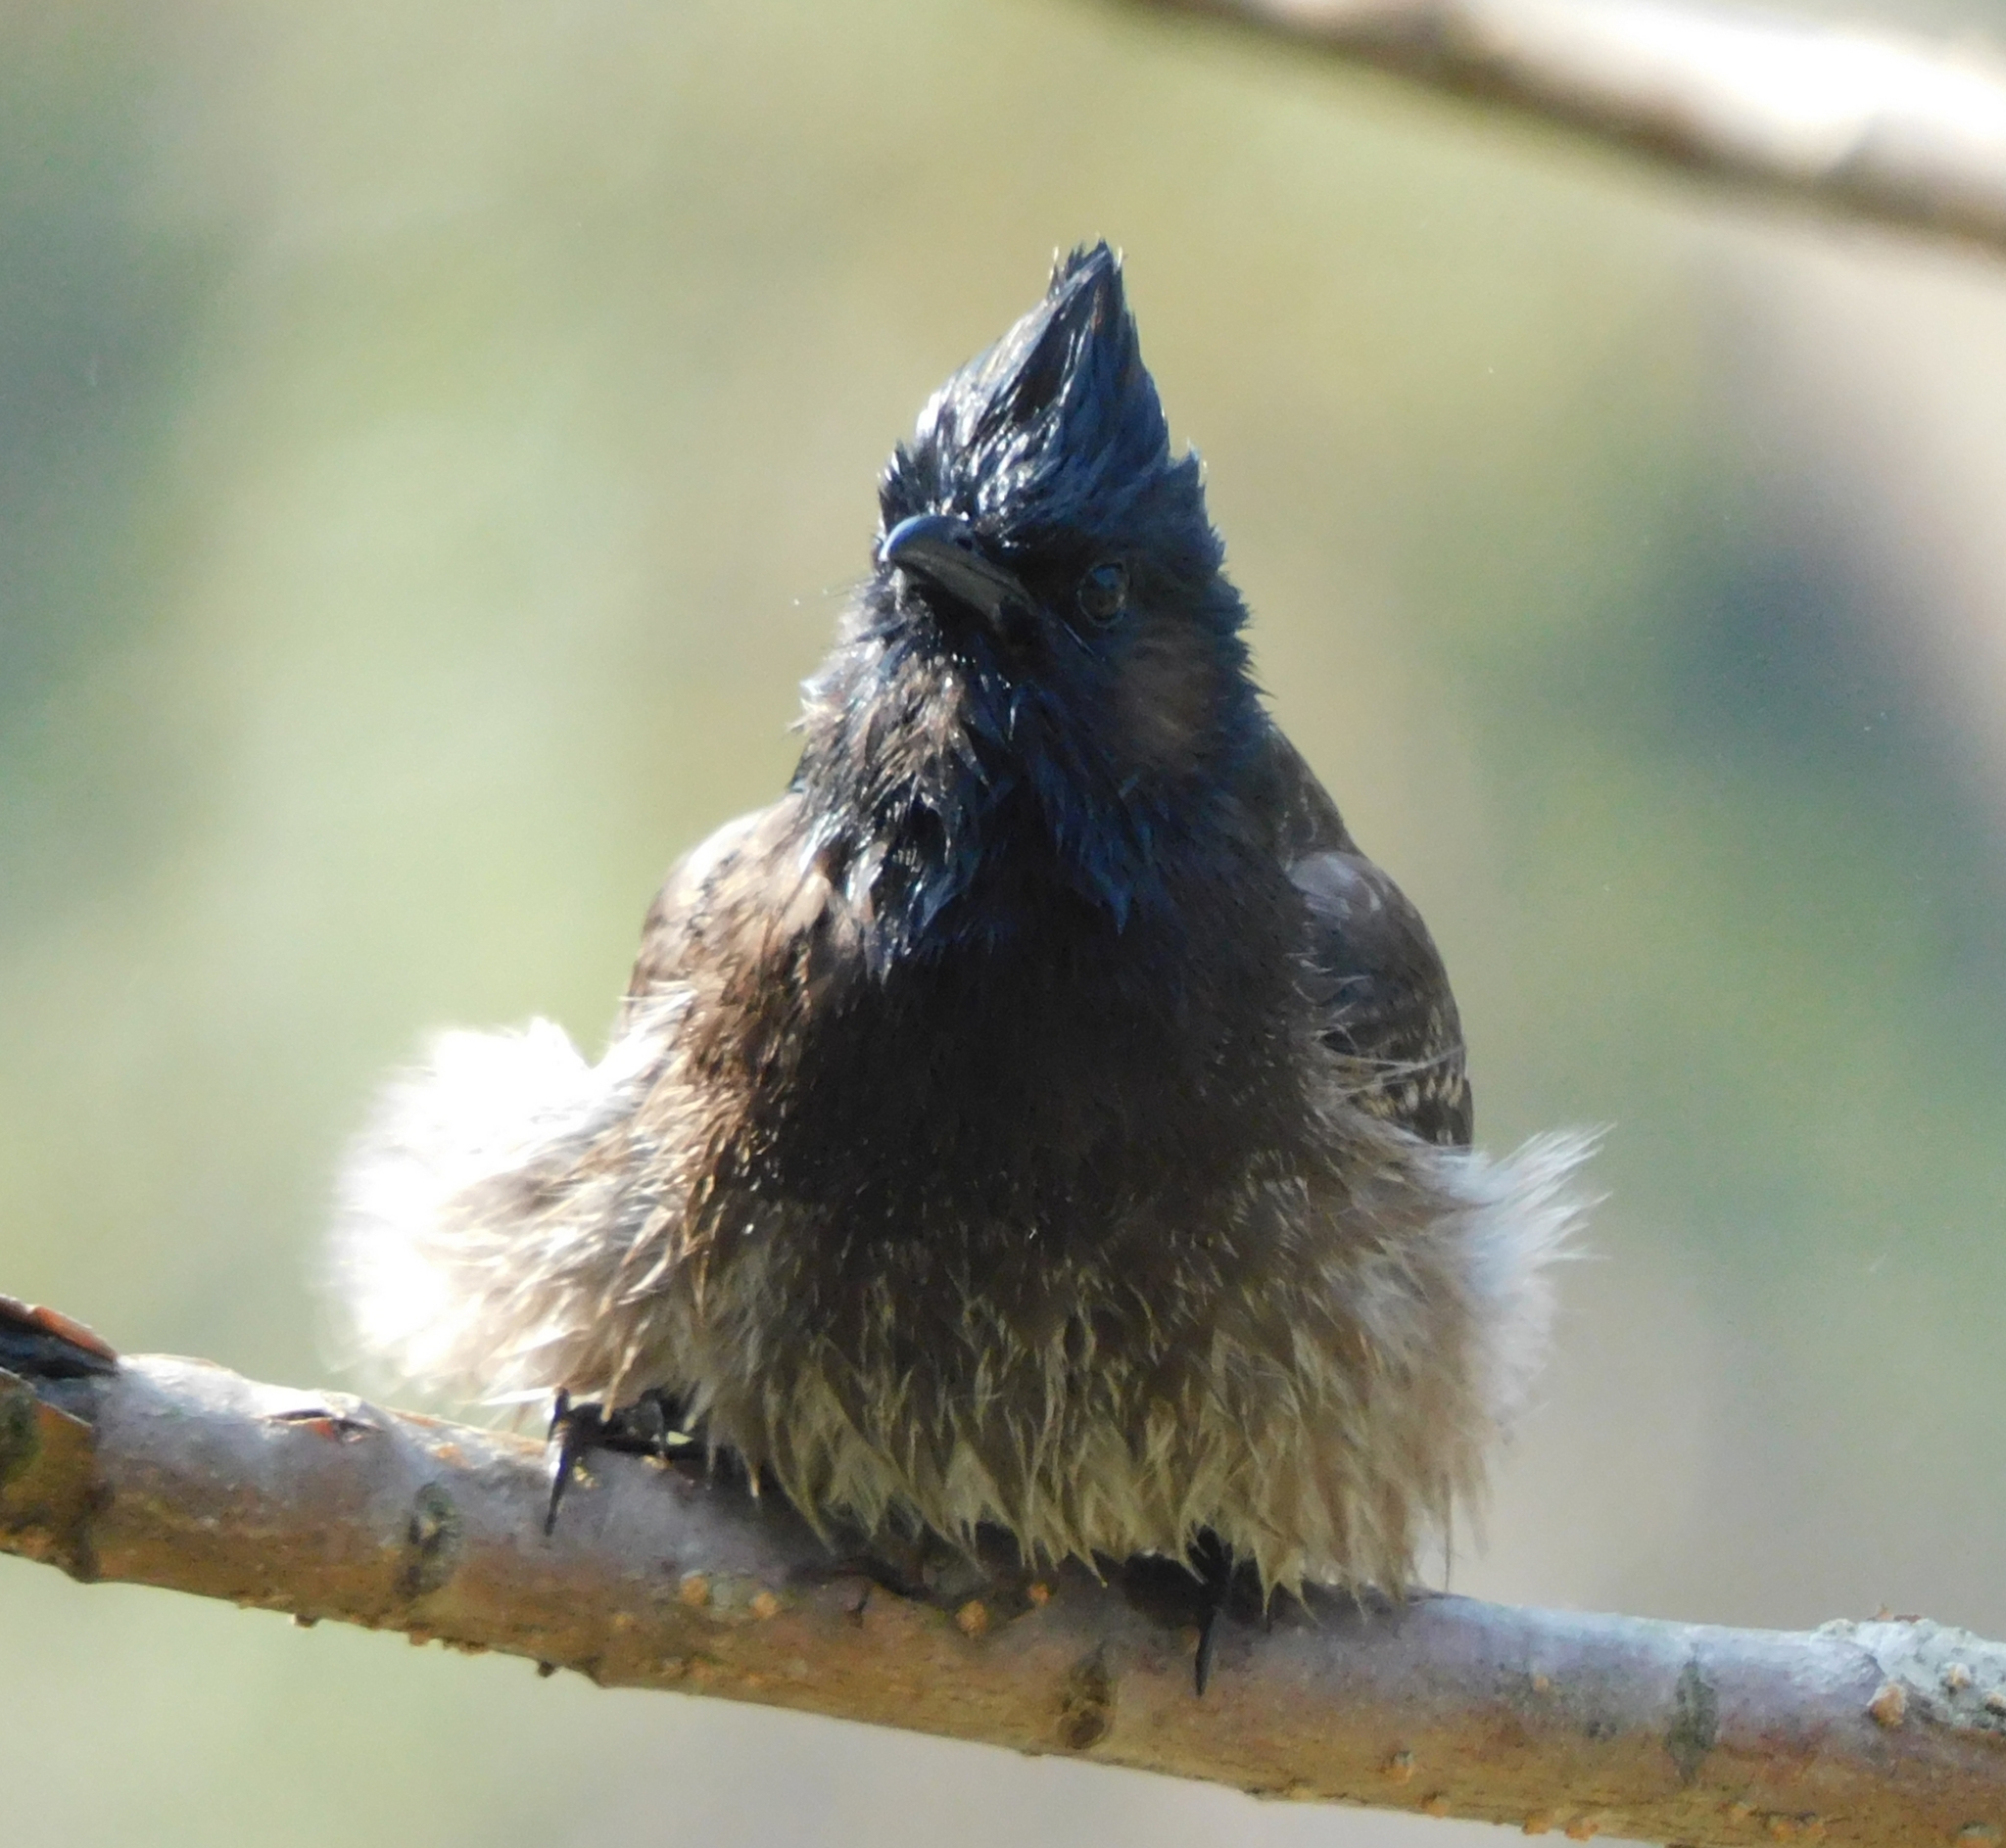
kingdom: Animalia
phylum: Chordata
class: Aves
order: Passeriformes
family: Pycnonotidae
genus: Pycnonotus
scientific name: Pycnonotus cafer
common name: Red-vented bulbul
